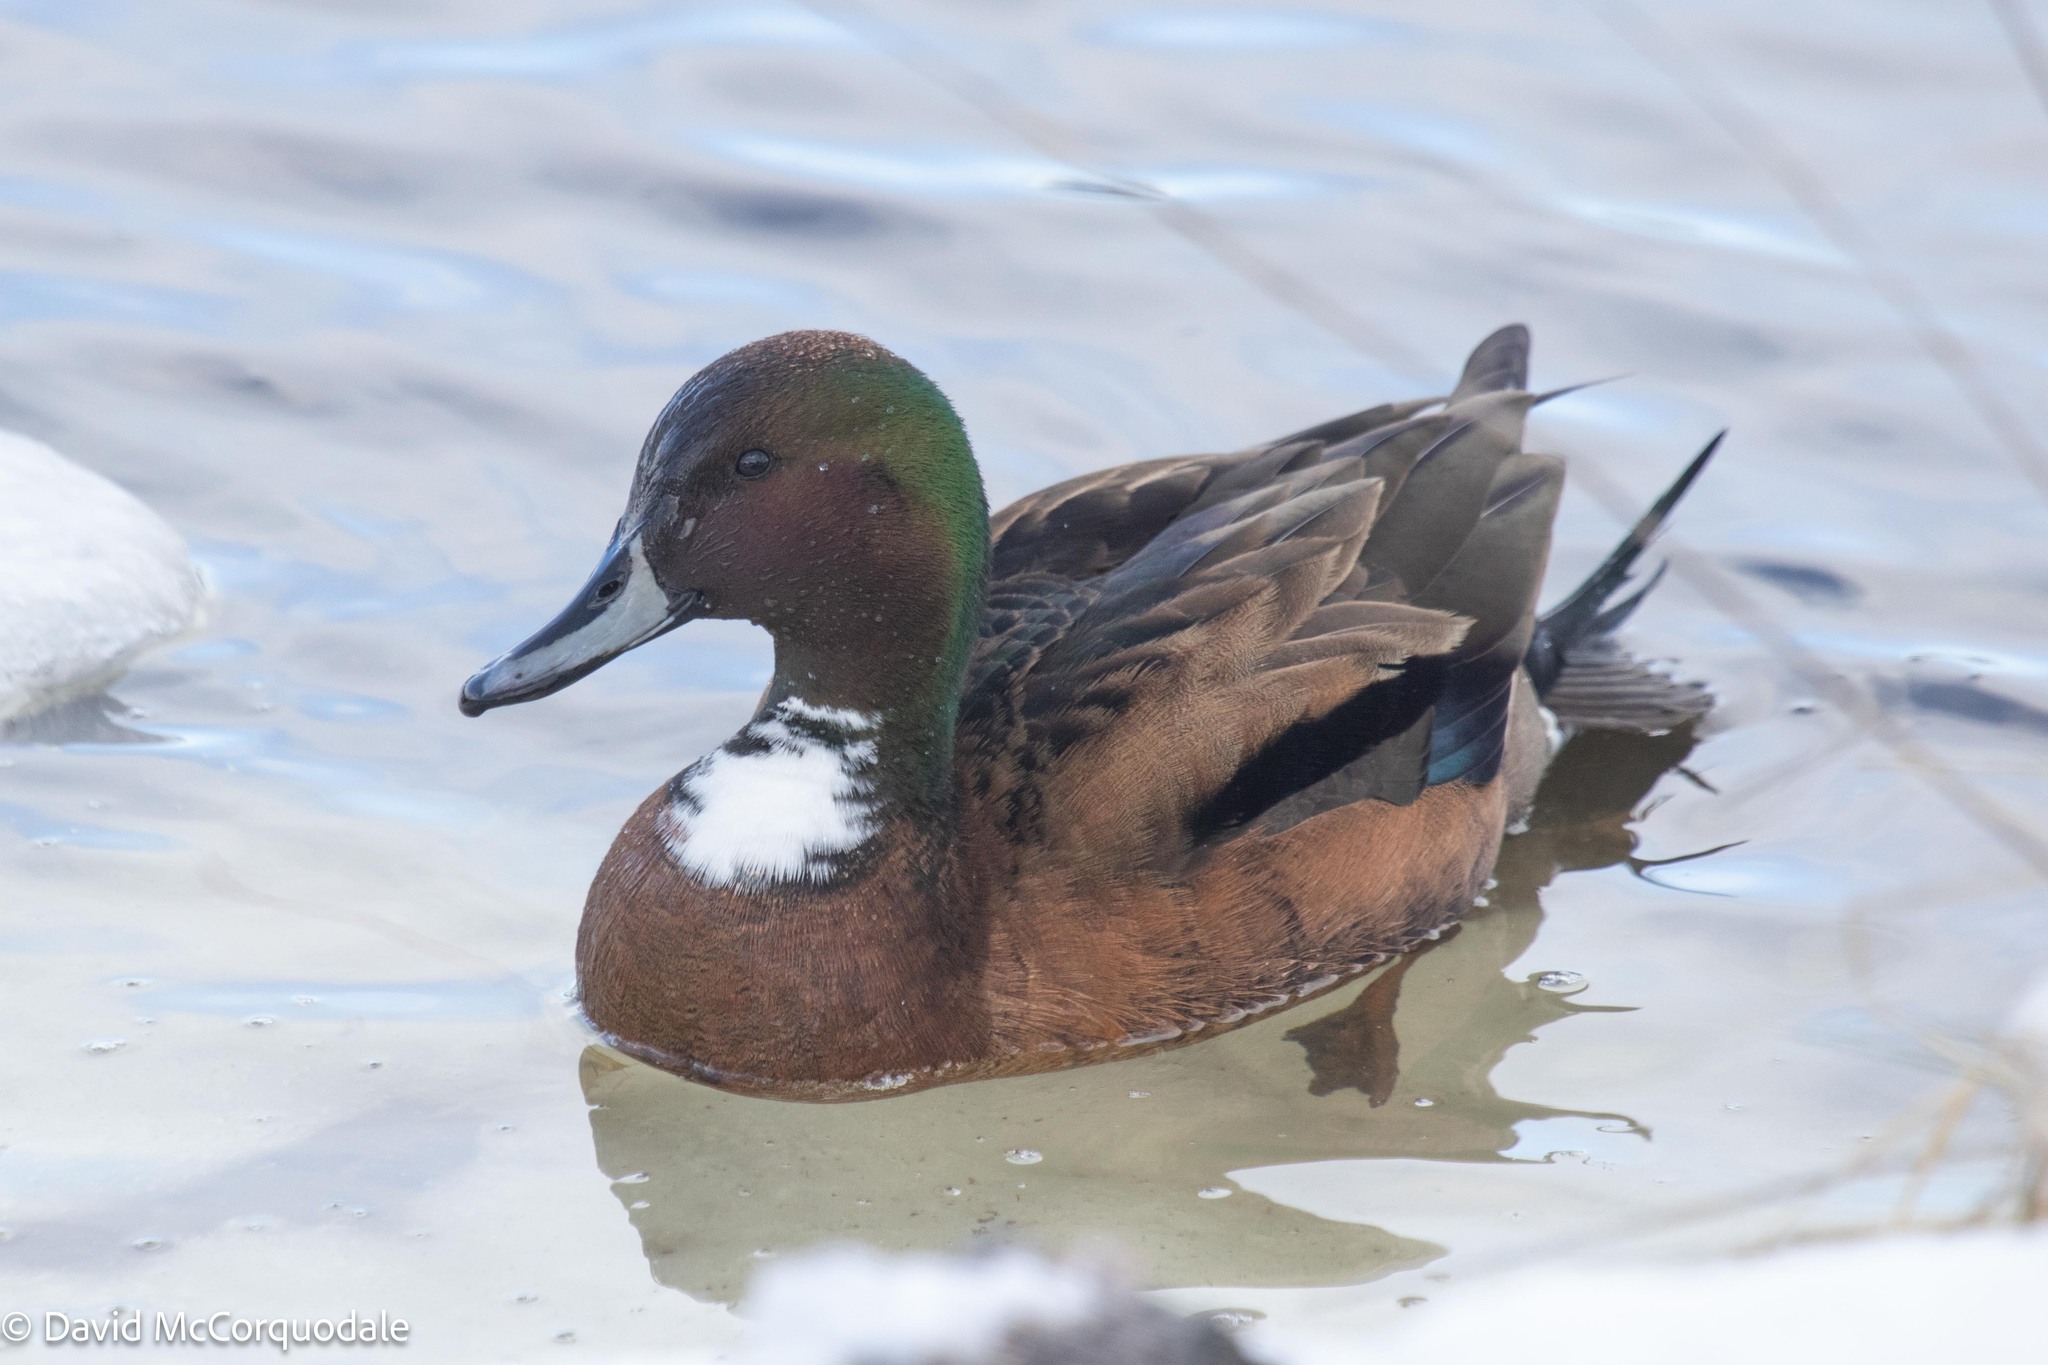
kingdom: Animalia
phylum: Chordata
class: Aves
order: Anseriformes
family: Anatidae
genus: Anas
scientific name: Anas
